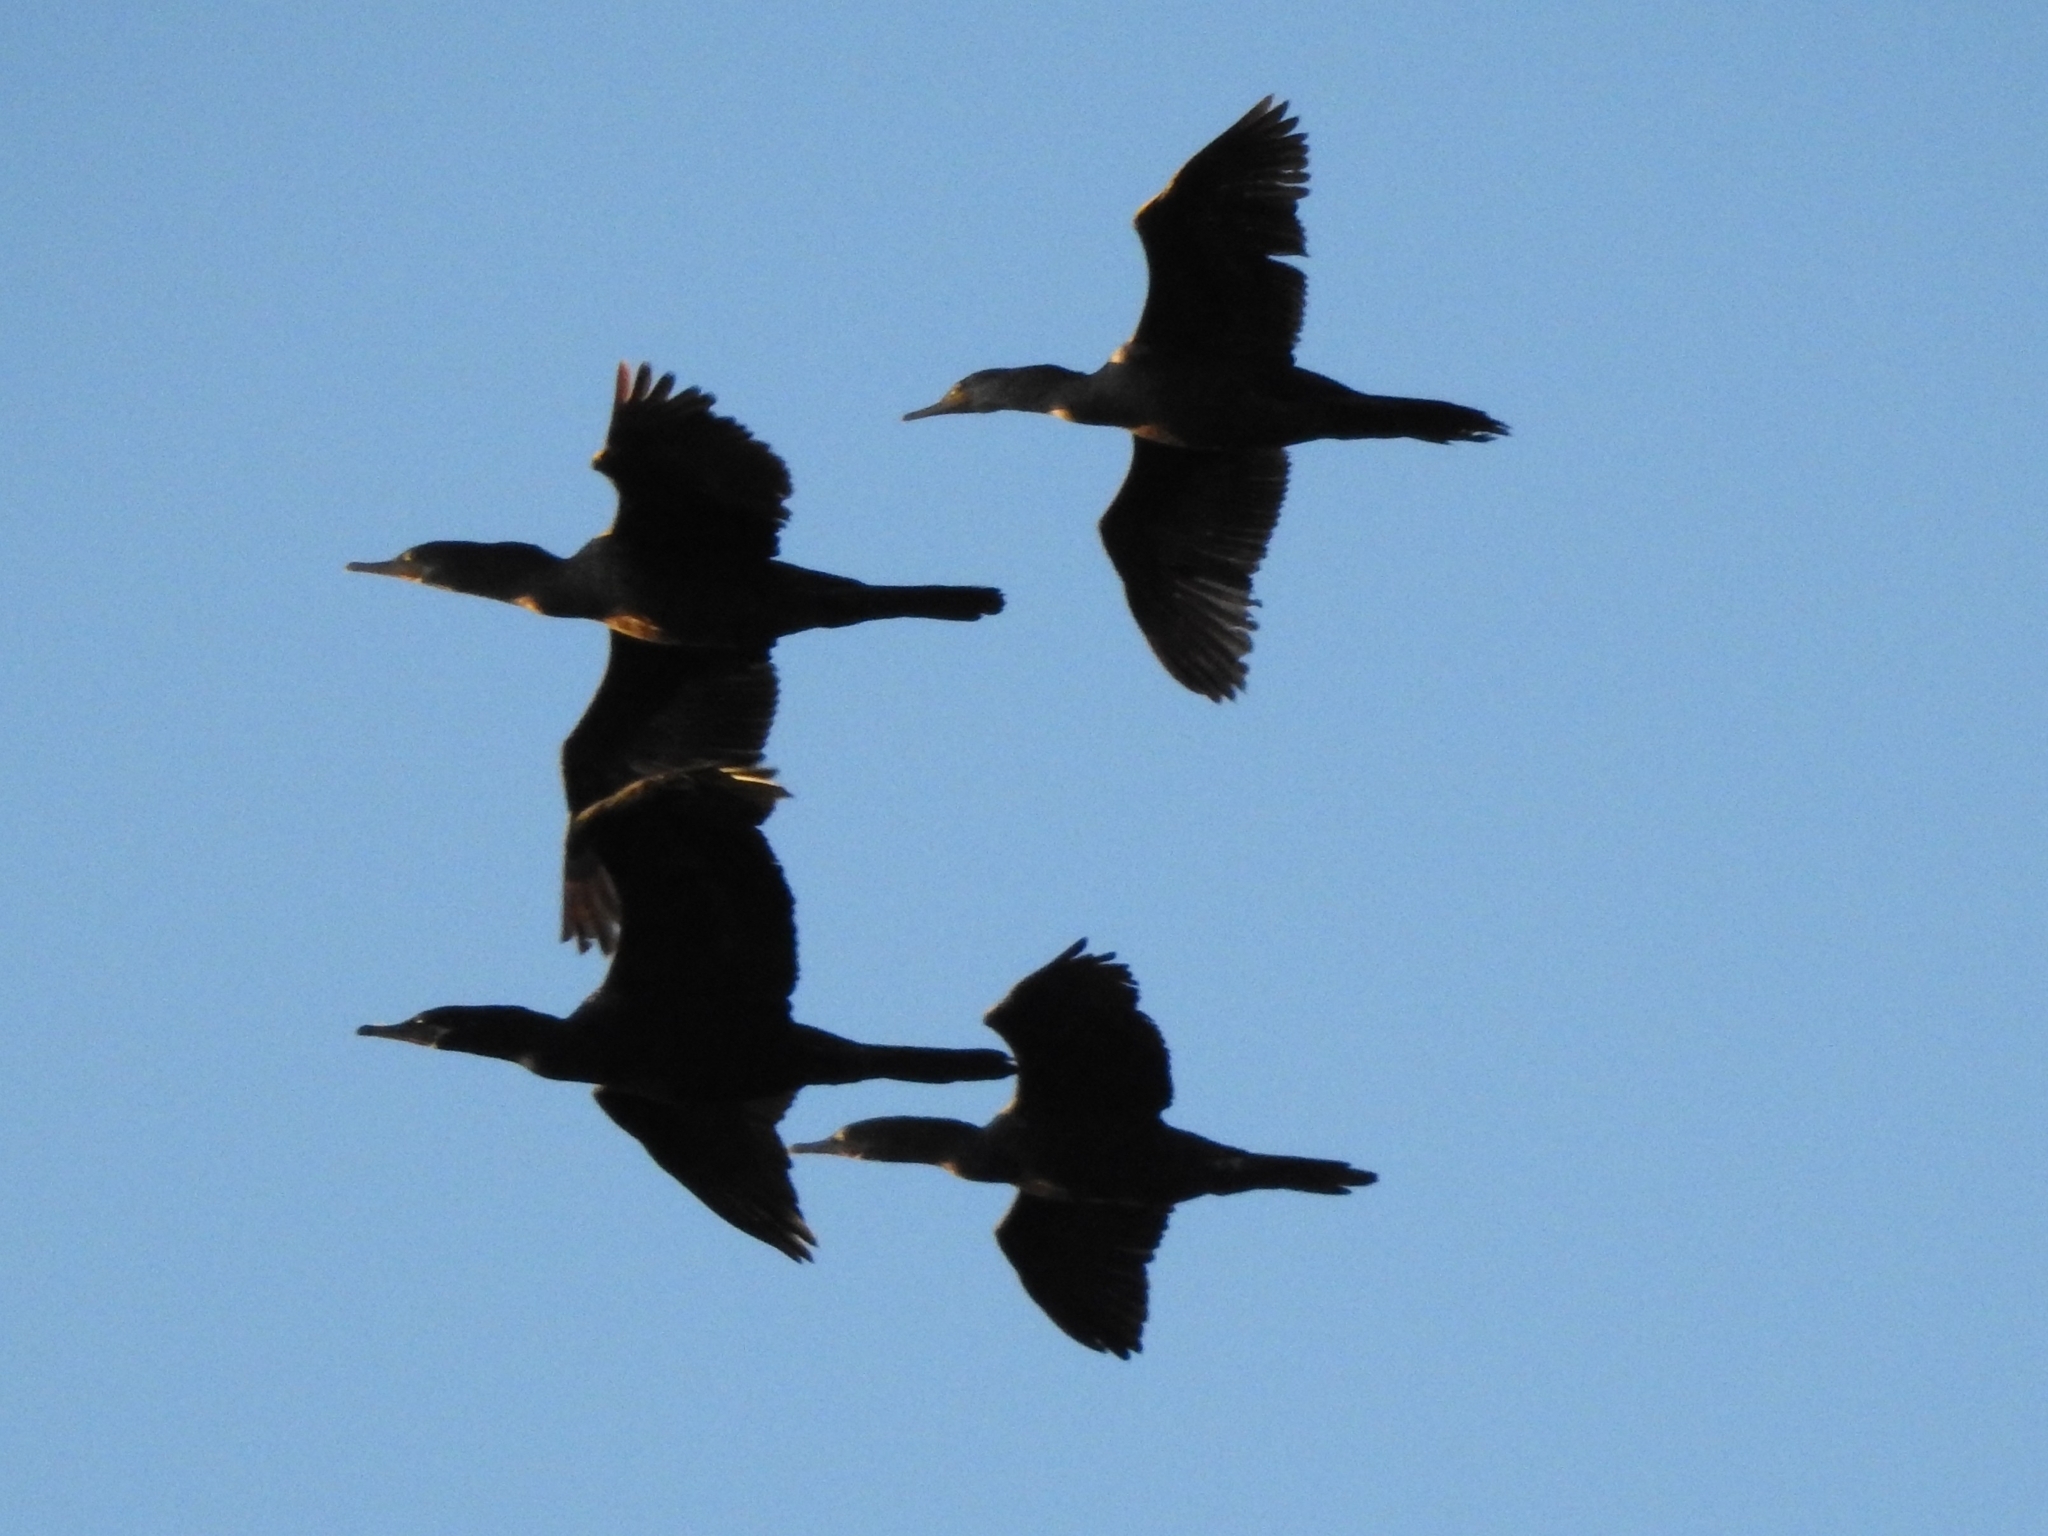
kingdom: Animalia
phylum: Chordata
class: Aves
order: Suliformes
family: Phalacrocoracidae
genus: Phalacrocorax
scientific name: Phalacrocorax brasilianus
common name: Neotropic cormorant
